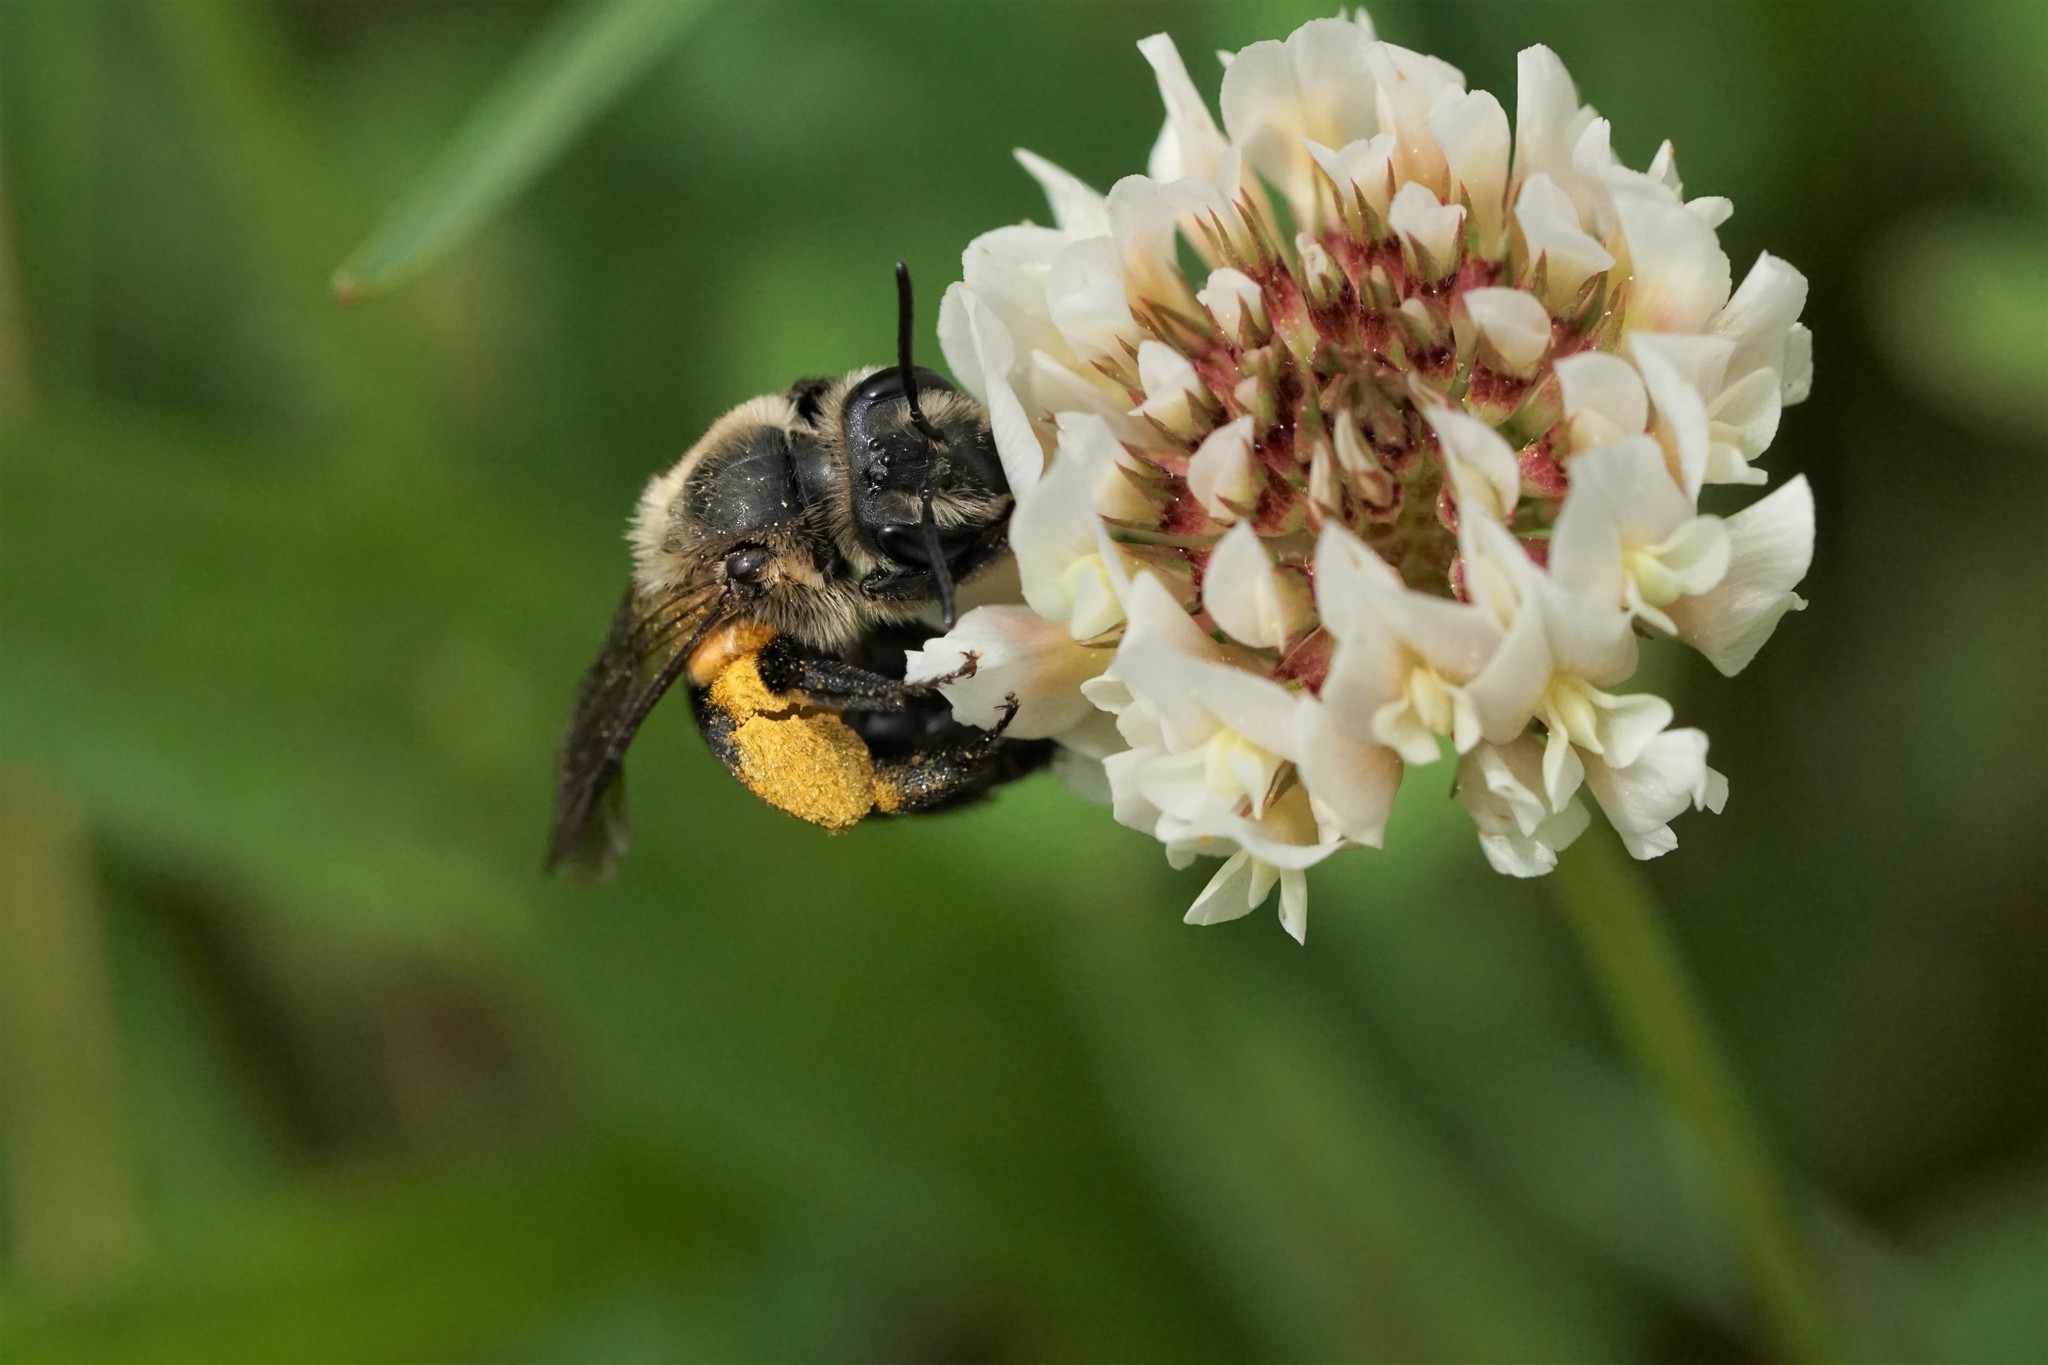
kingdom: Animalia
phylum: Arthropoda
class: Insecta
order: Hymenoptera
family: Andrenidae
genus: Andrena
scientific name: Andrena vicina
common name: Neighborly mining bee
